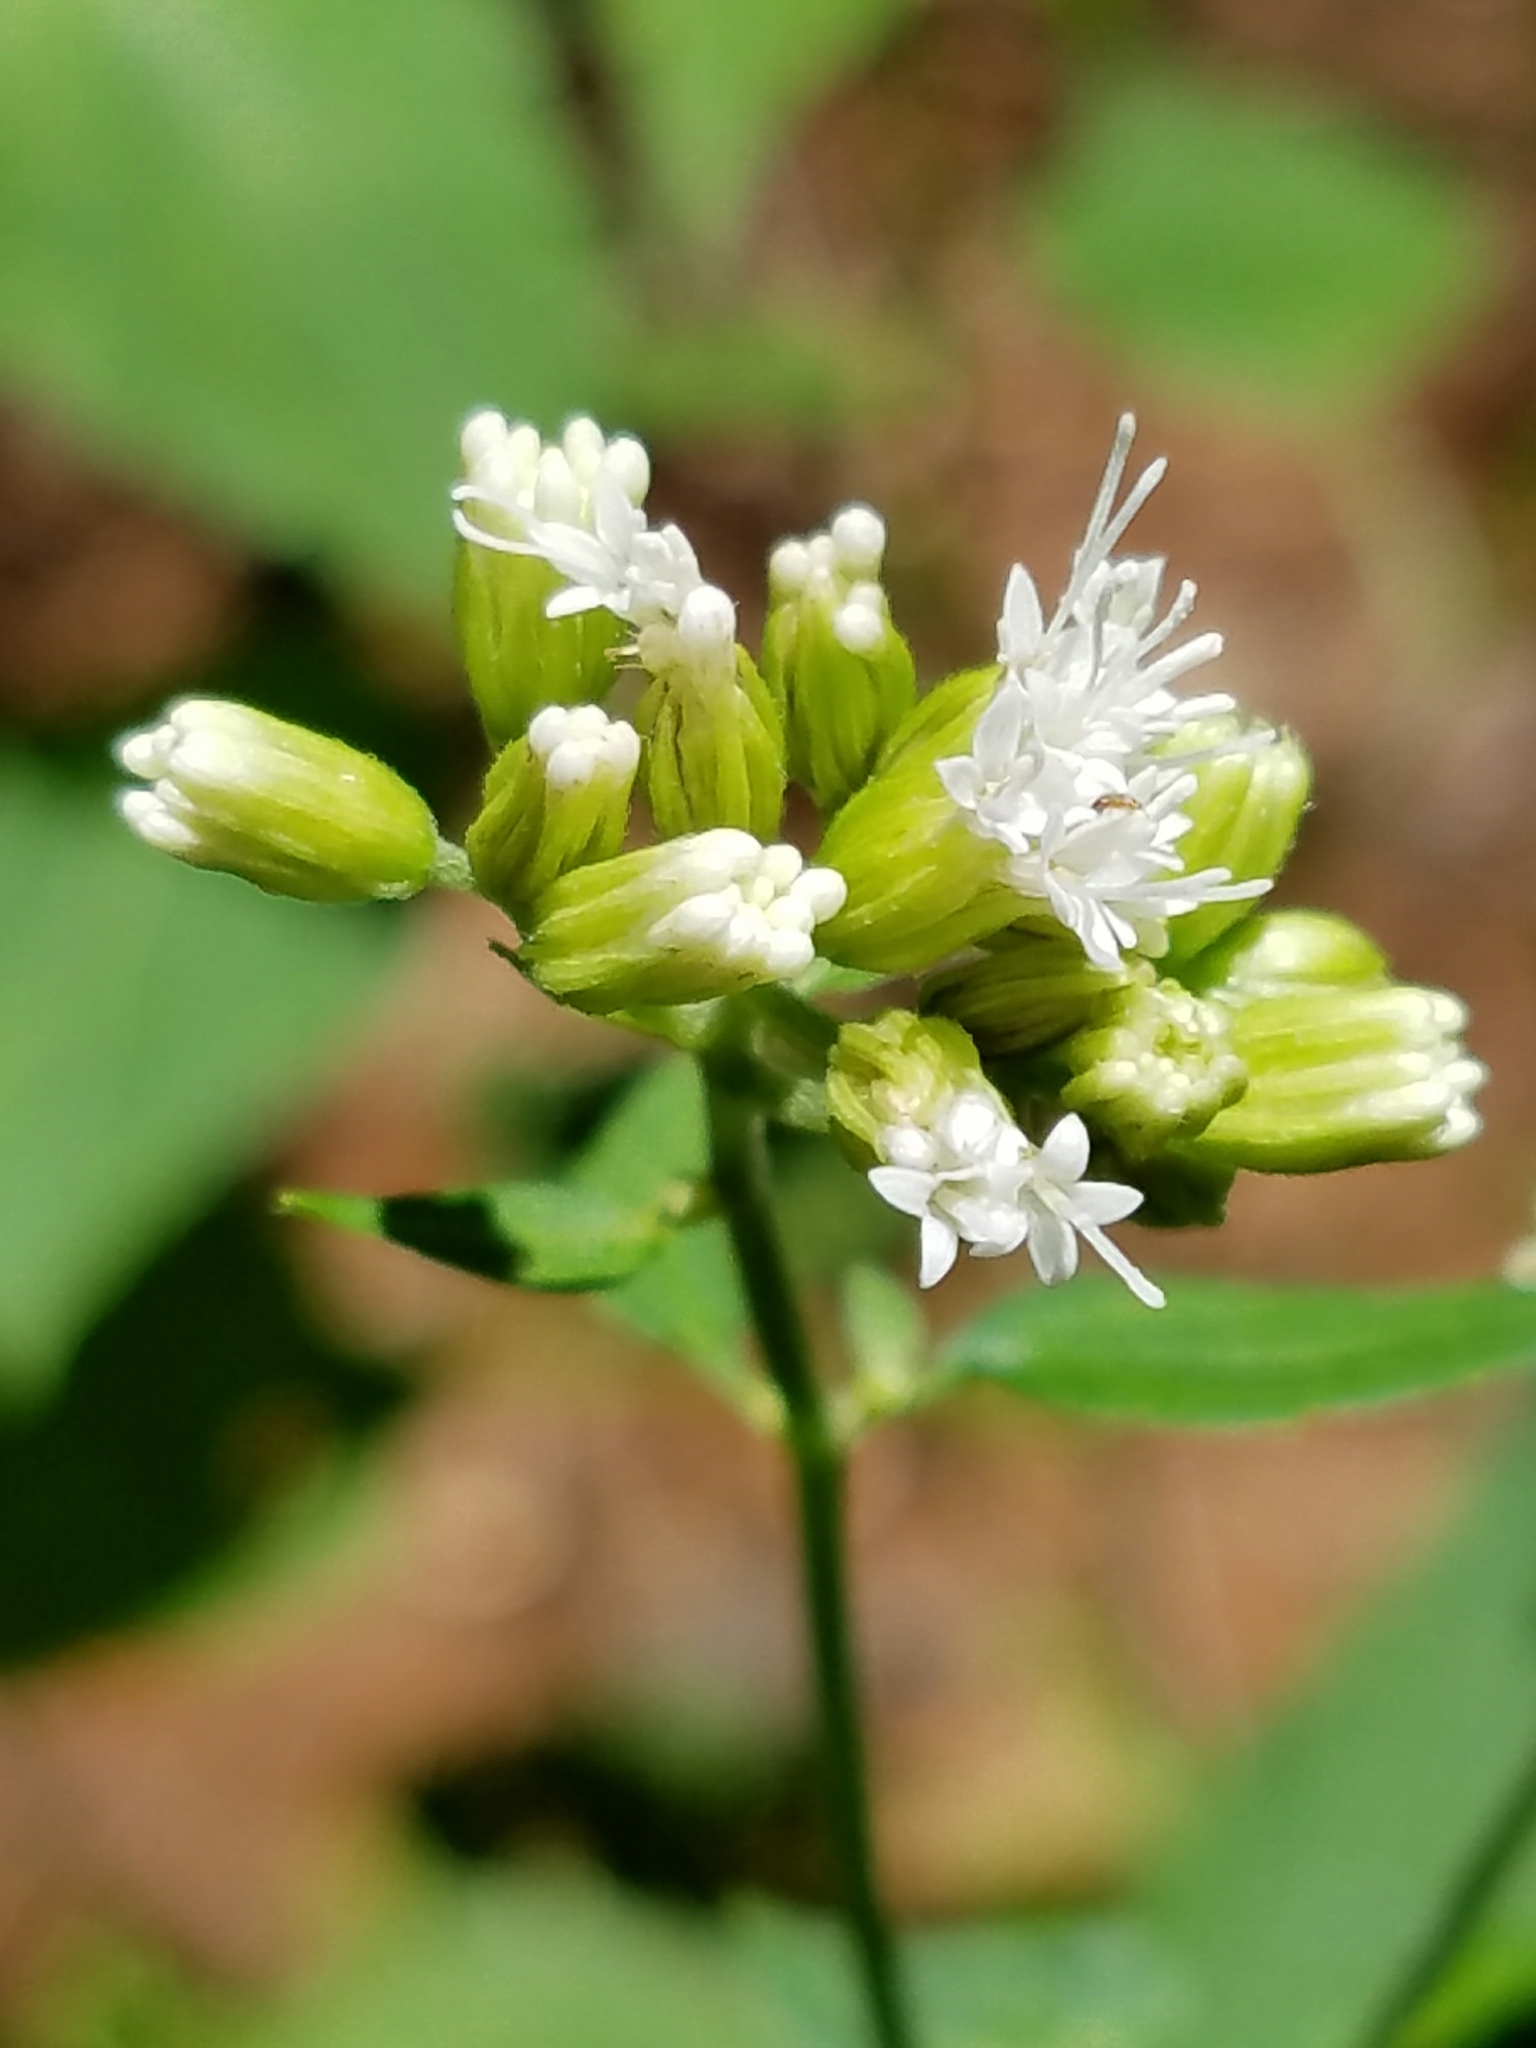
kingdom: Plantae
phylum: Tracheophyta
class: Magnoliopsida
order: Asterales
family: Asteraceae
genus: Ageratina
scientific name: Ageratina altissima
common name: White snakeroot
